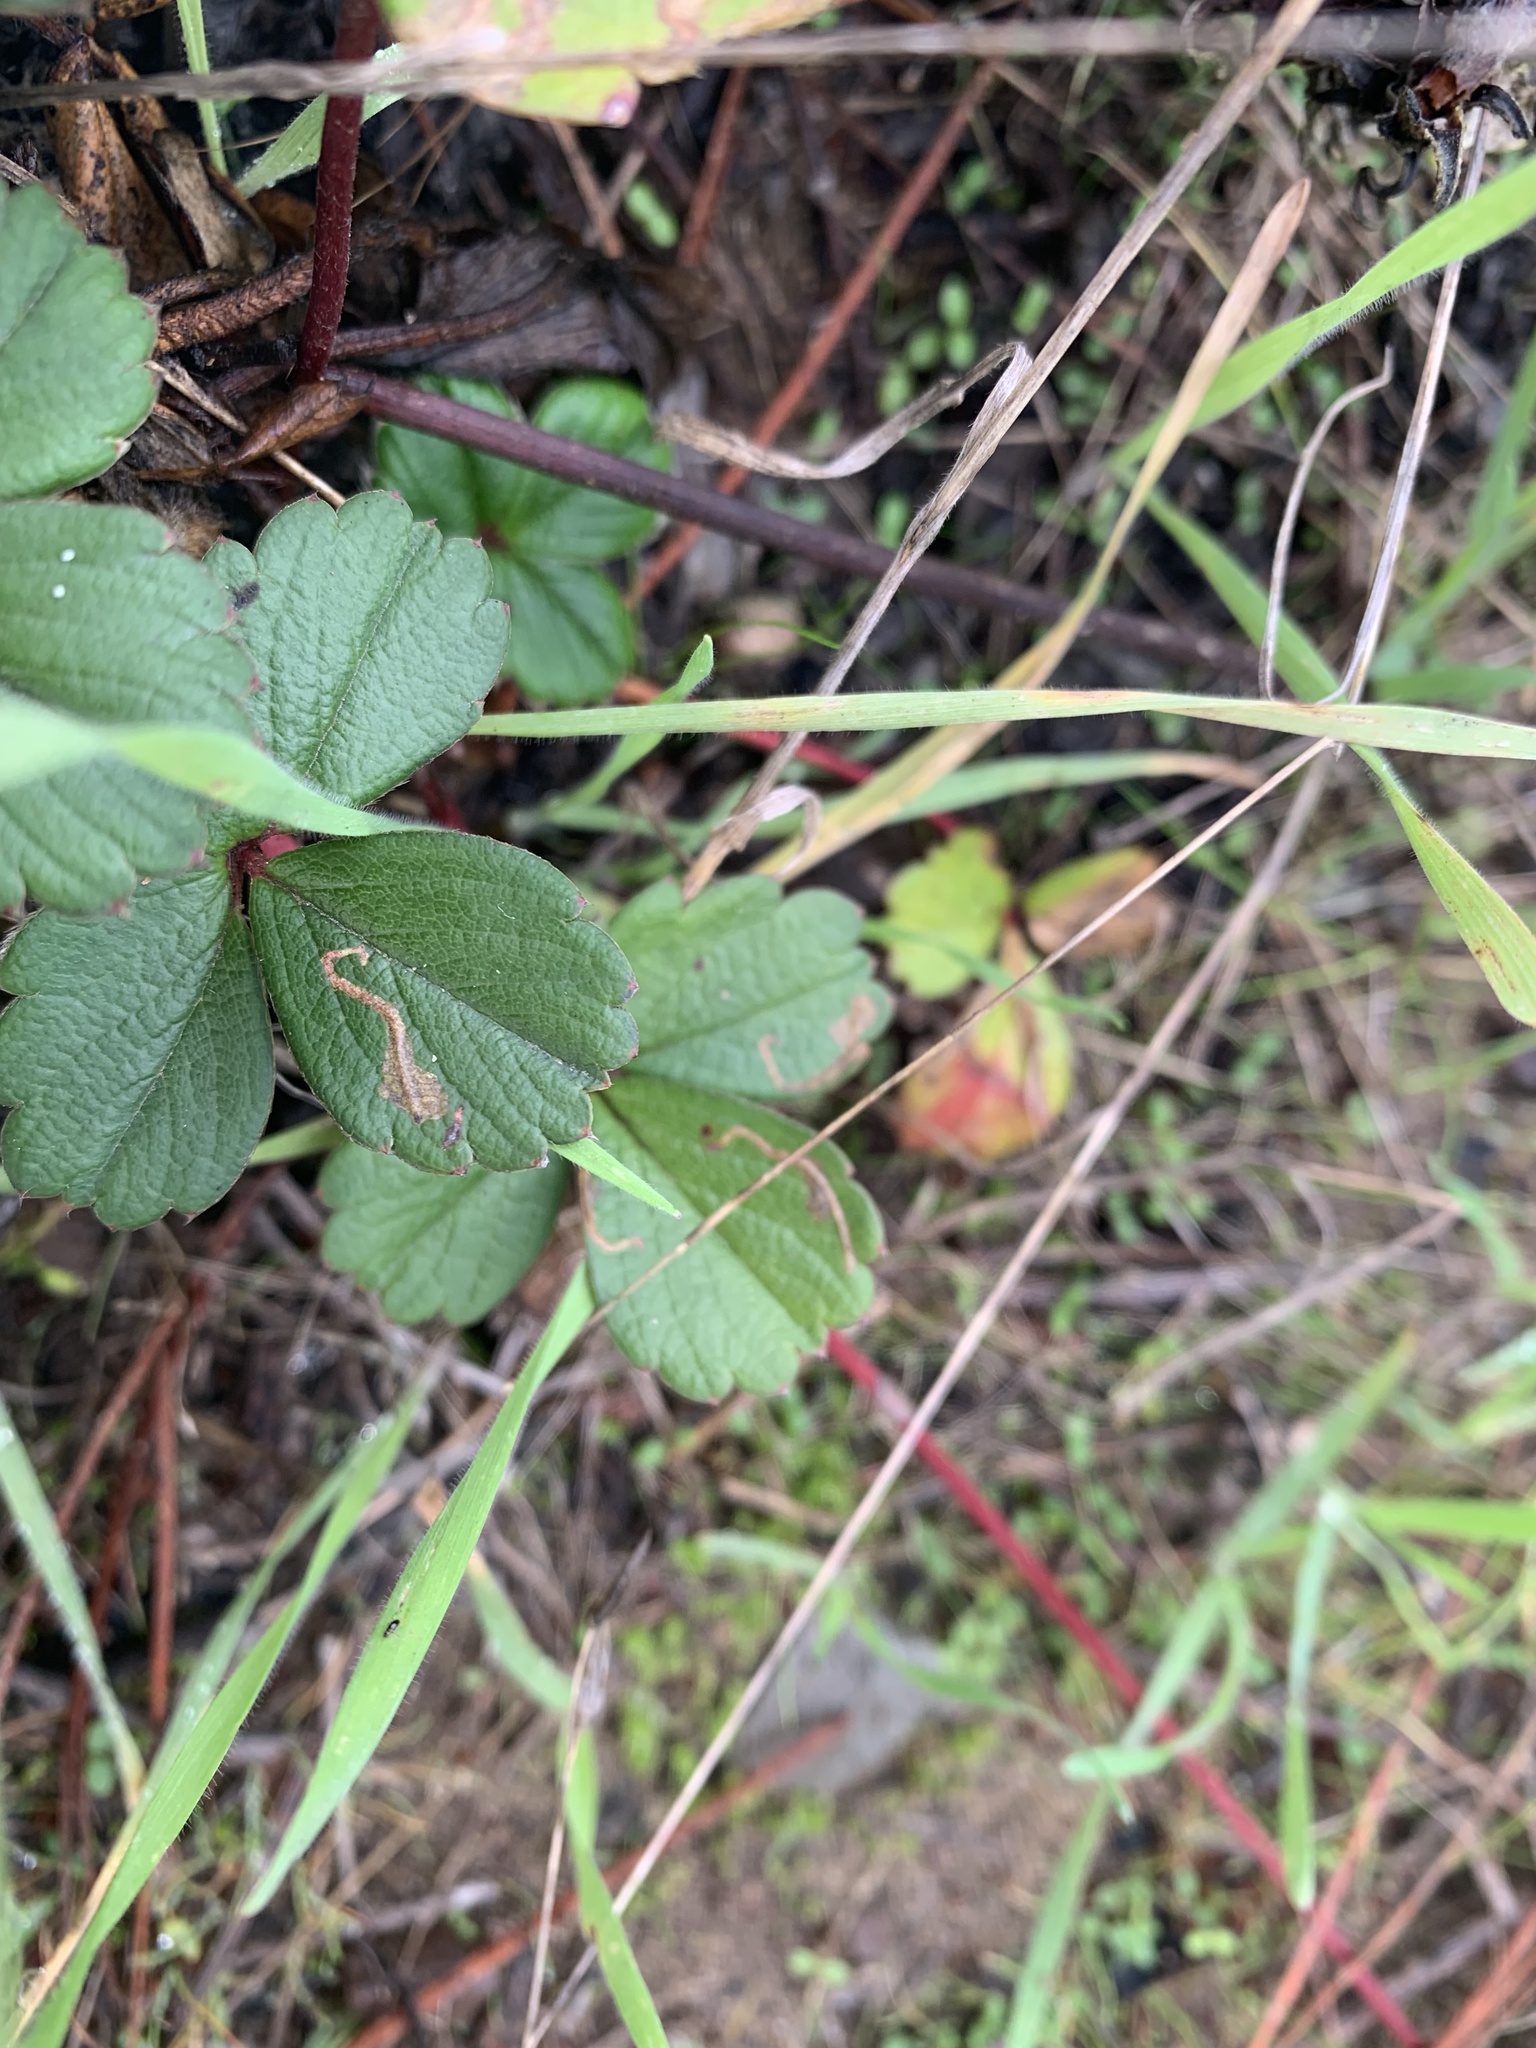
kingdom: Animalia
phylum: Arthropoda
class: Insecta
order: Lepidoptera
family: Tischeriidae
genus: Coptotriche
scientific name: Coptotriche confusa
